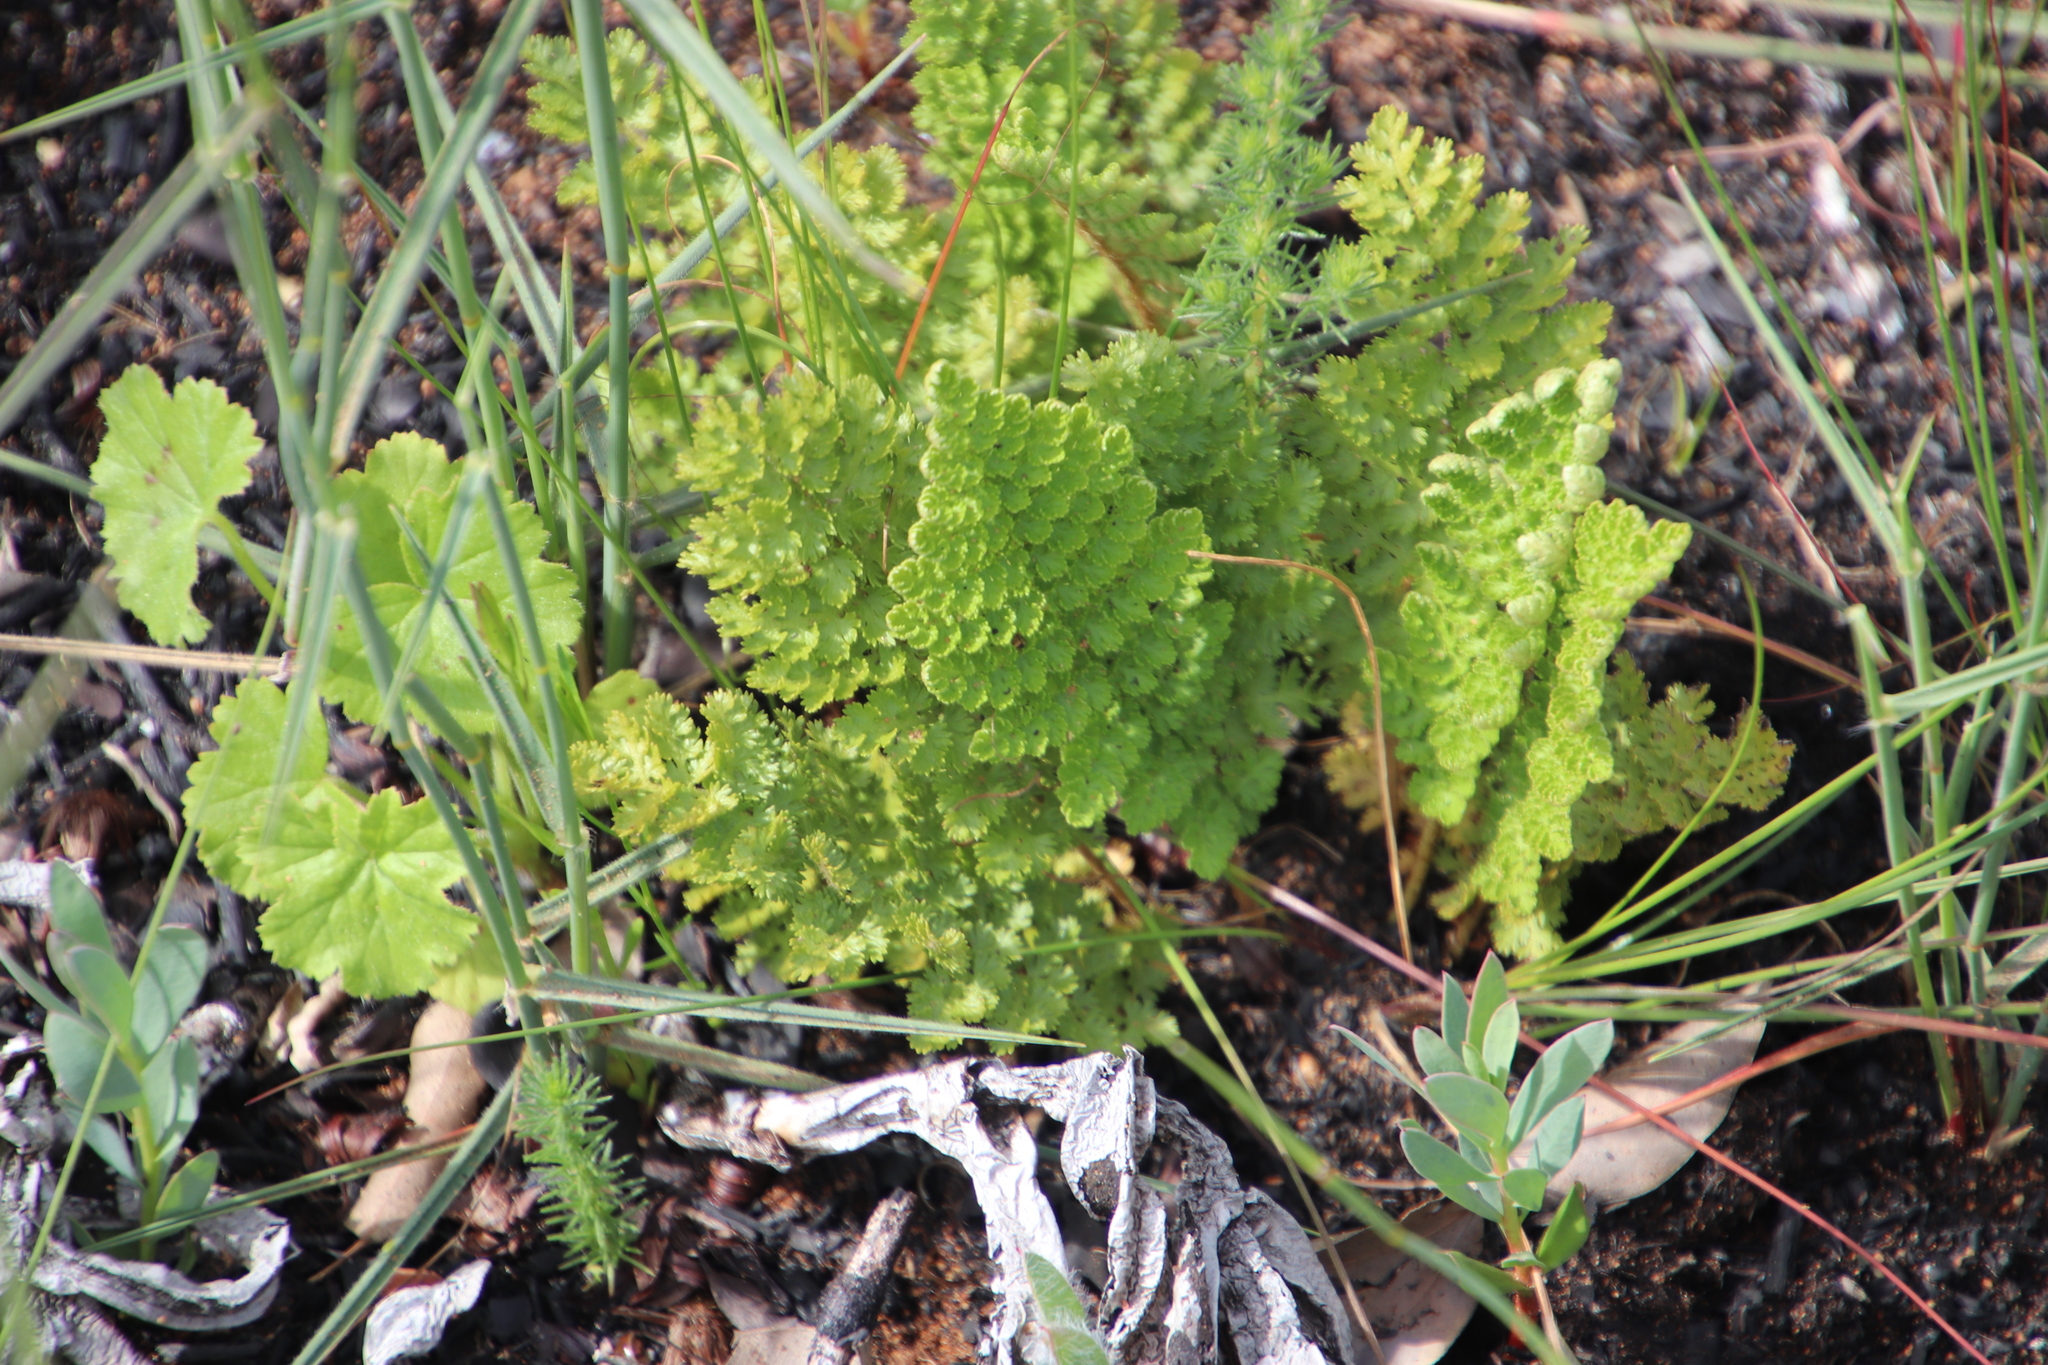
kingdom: Plantae
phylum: Tracheophyta
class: Polypodiopsida
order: Schizaeales
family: Anemiaceae
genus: Anemia
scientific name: Anemia caffrorum
